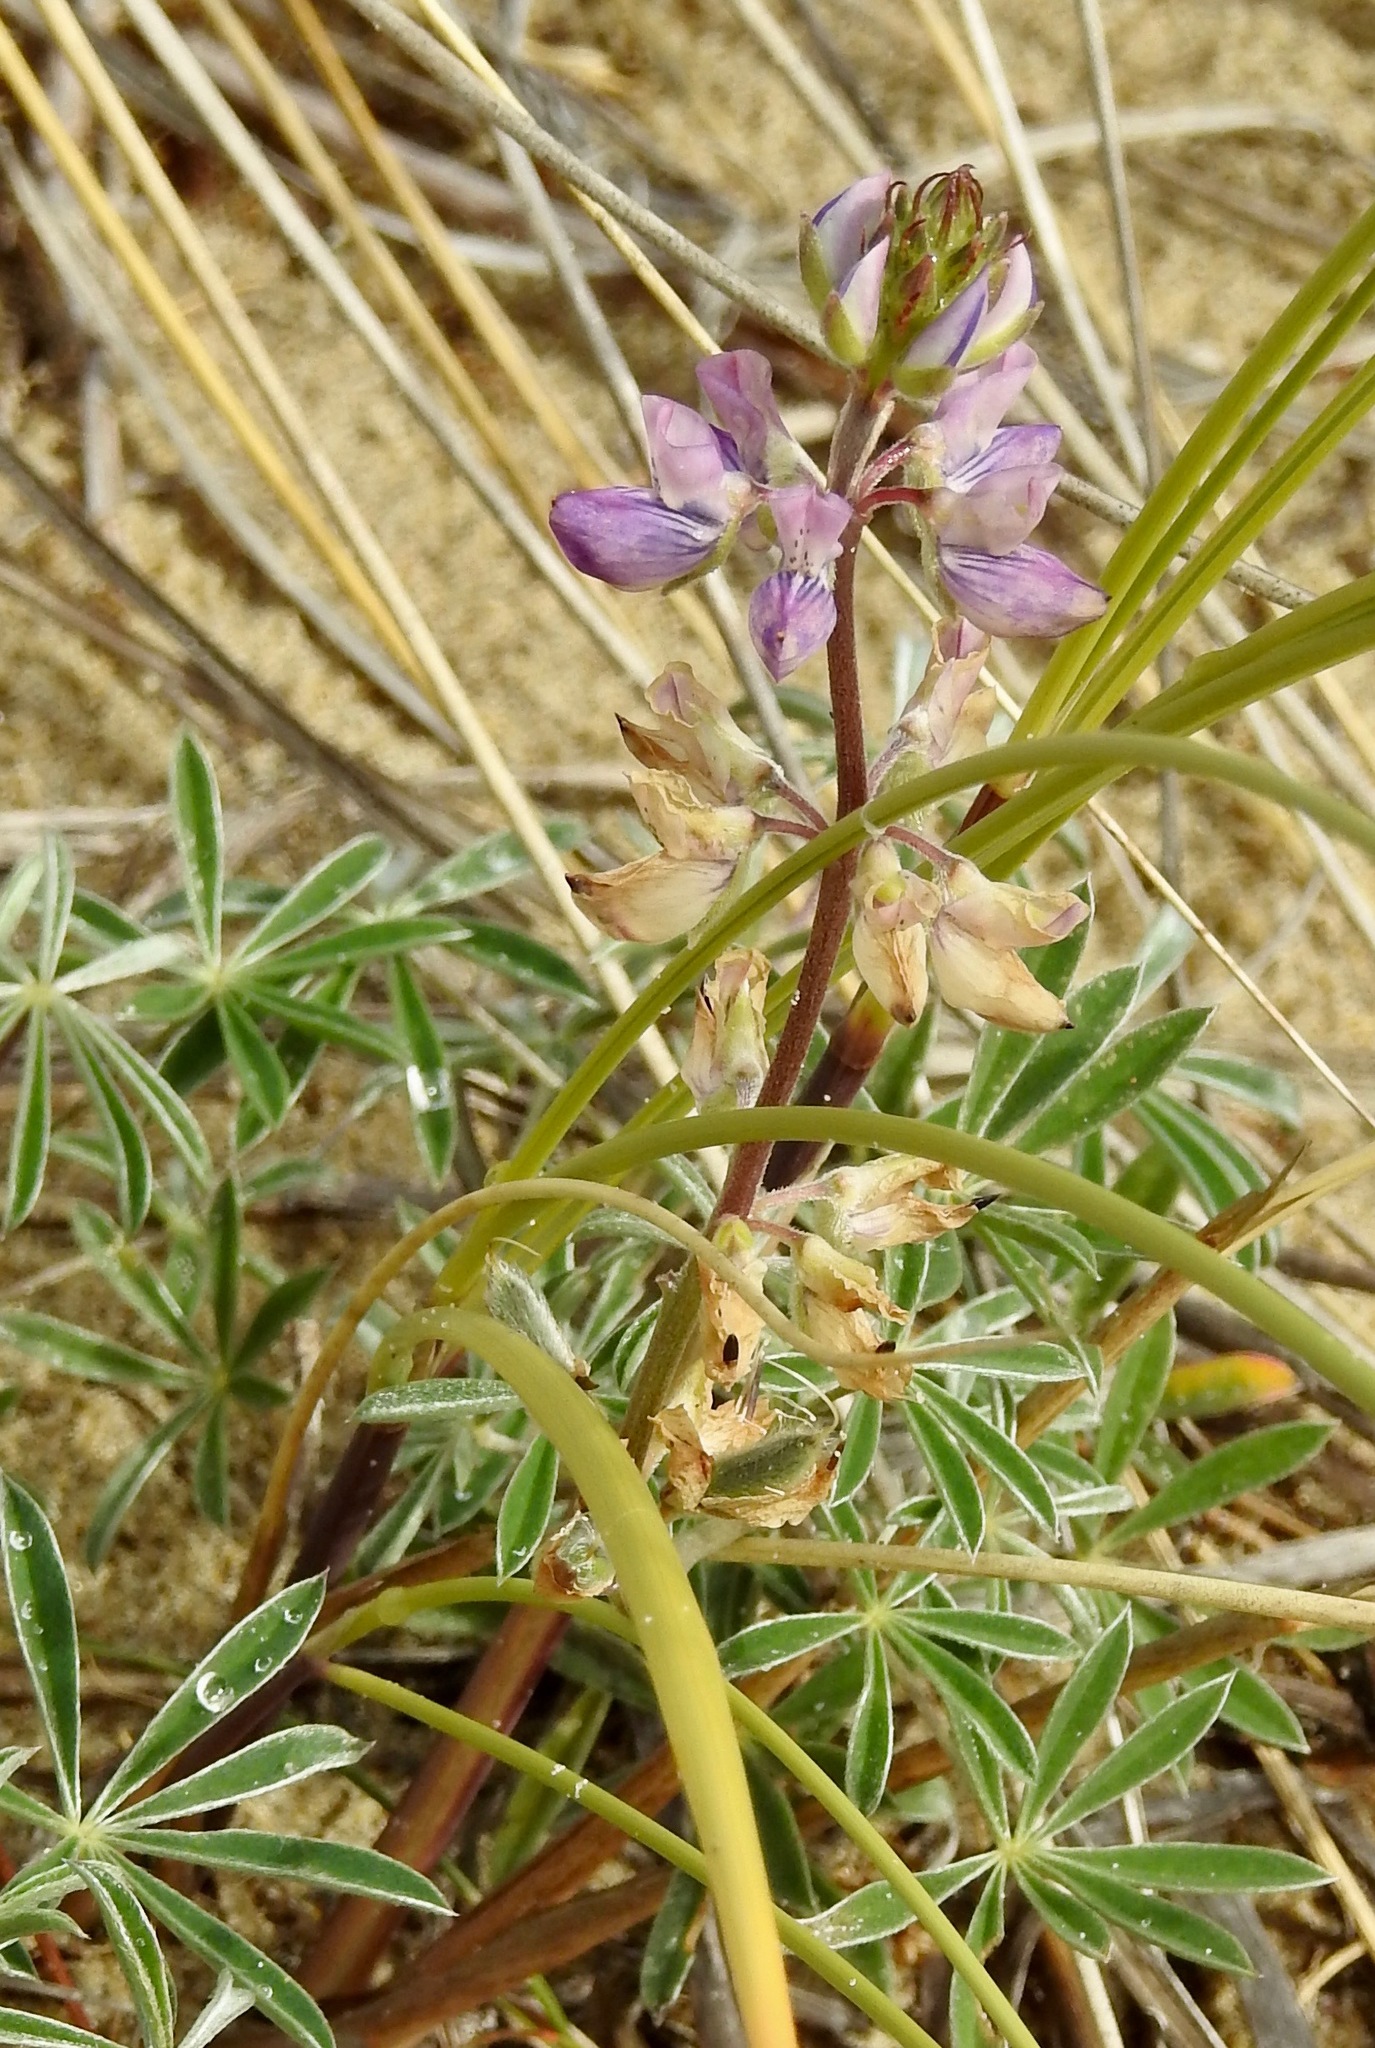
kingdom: Plantae
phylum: Tracheophyta
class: Magnoliopsida
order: Fabales
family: Fabaceae
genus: Lupinus
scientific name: Lupinus littoralis
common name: Seashore lupine
